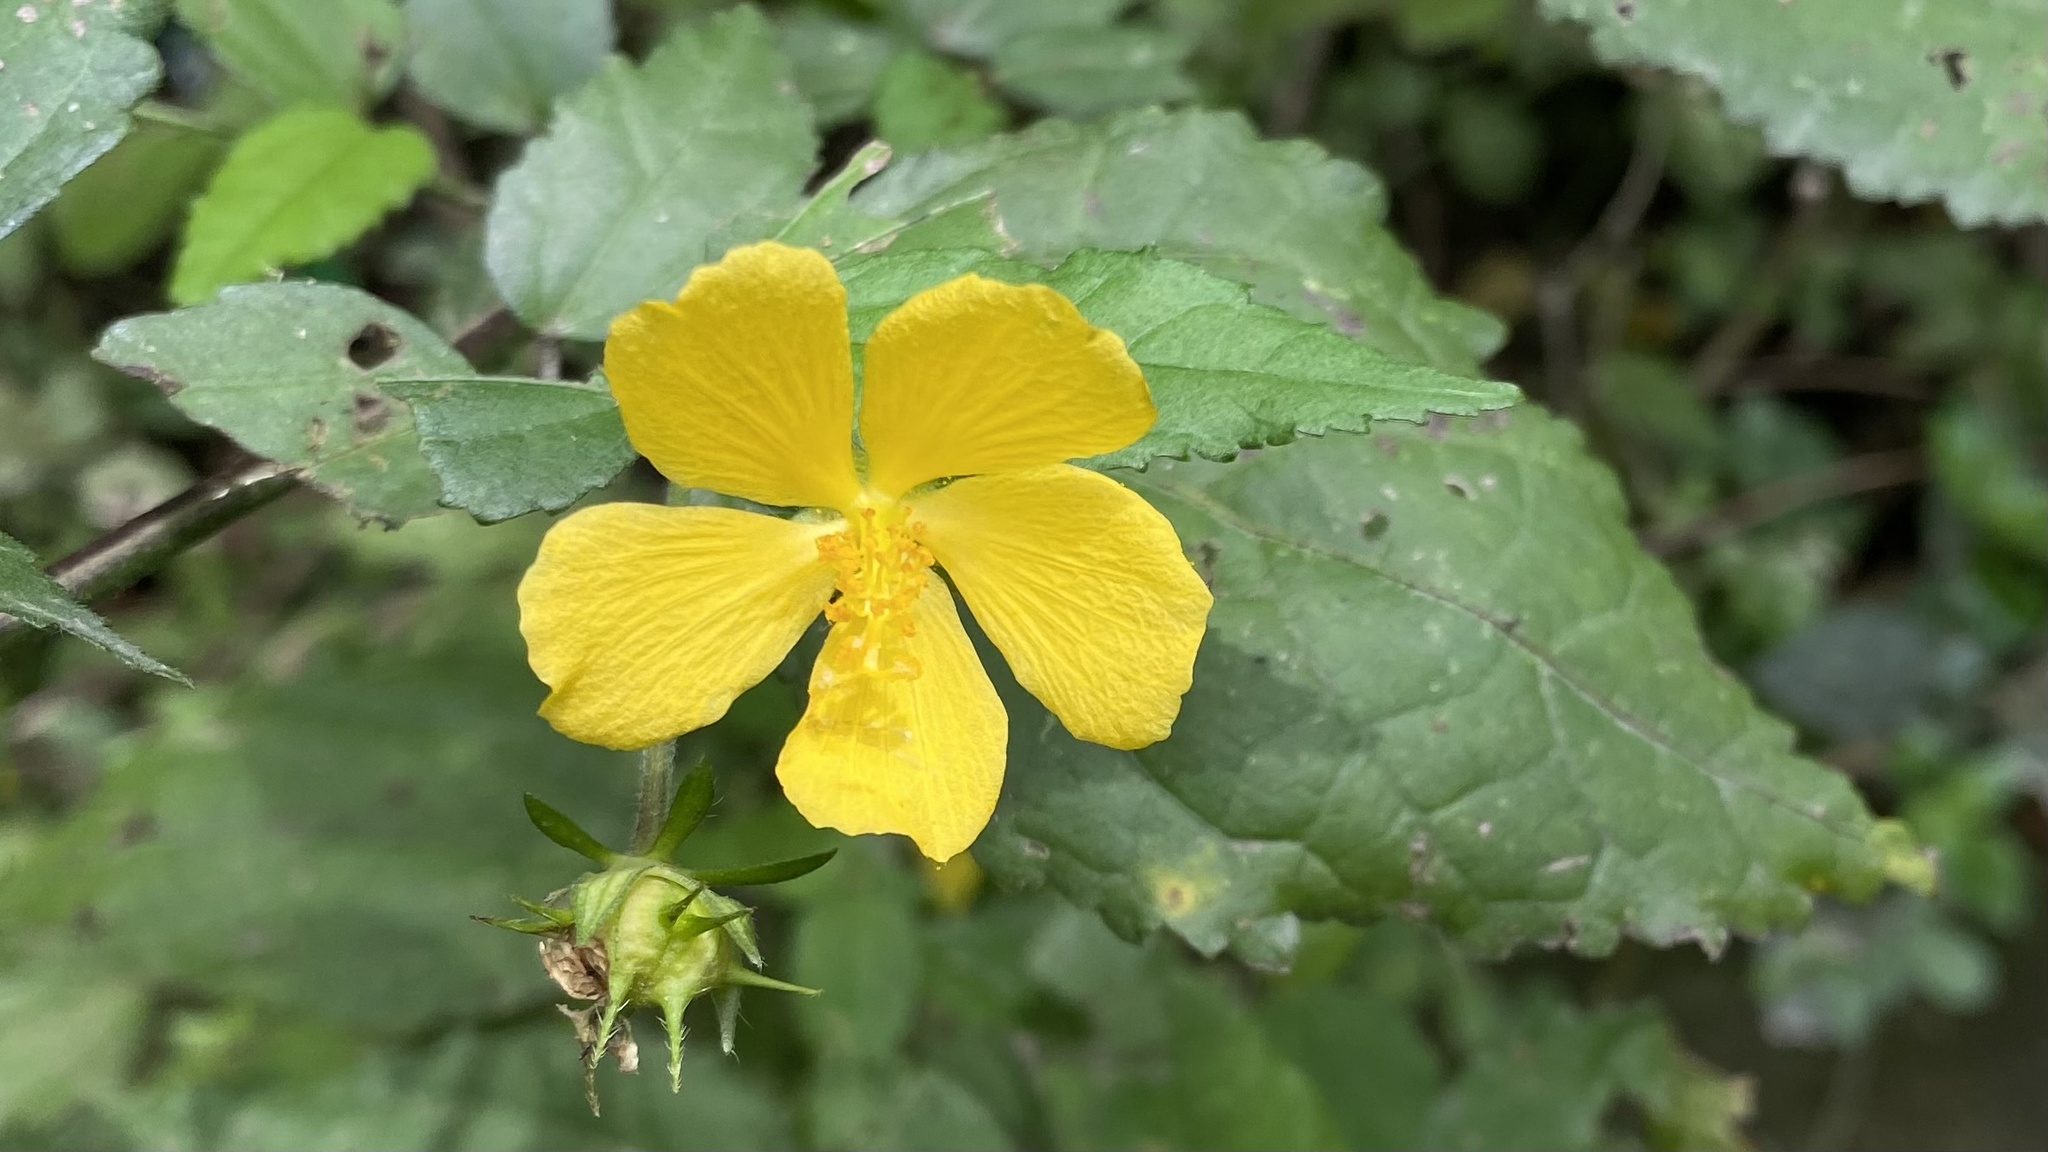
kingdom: Plantae
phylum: Tracheophyta
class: Magnoliopsida
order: Malvales
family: Malvaceae
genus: Pavonia
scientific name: Pavonia sepium
